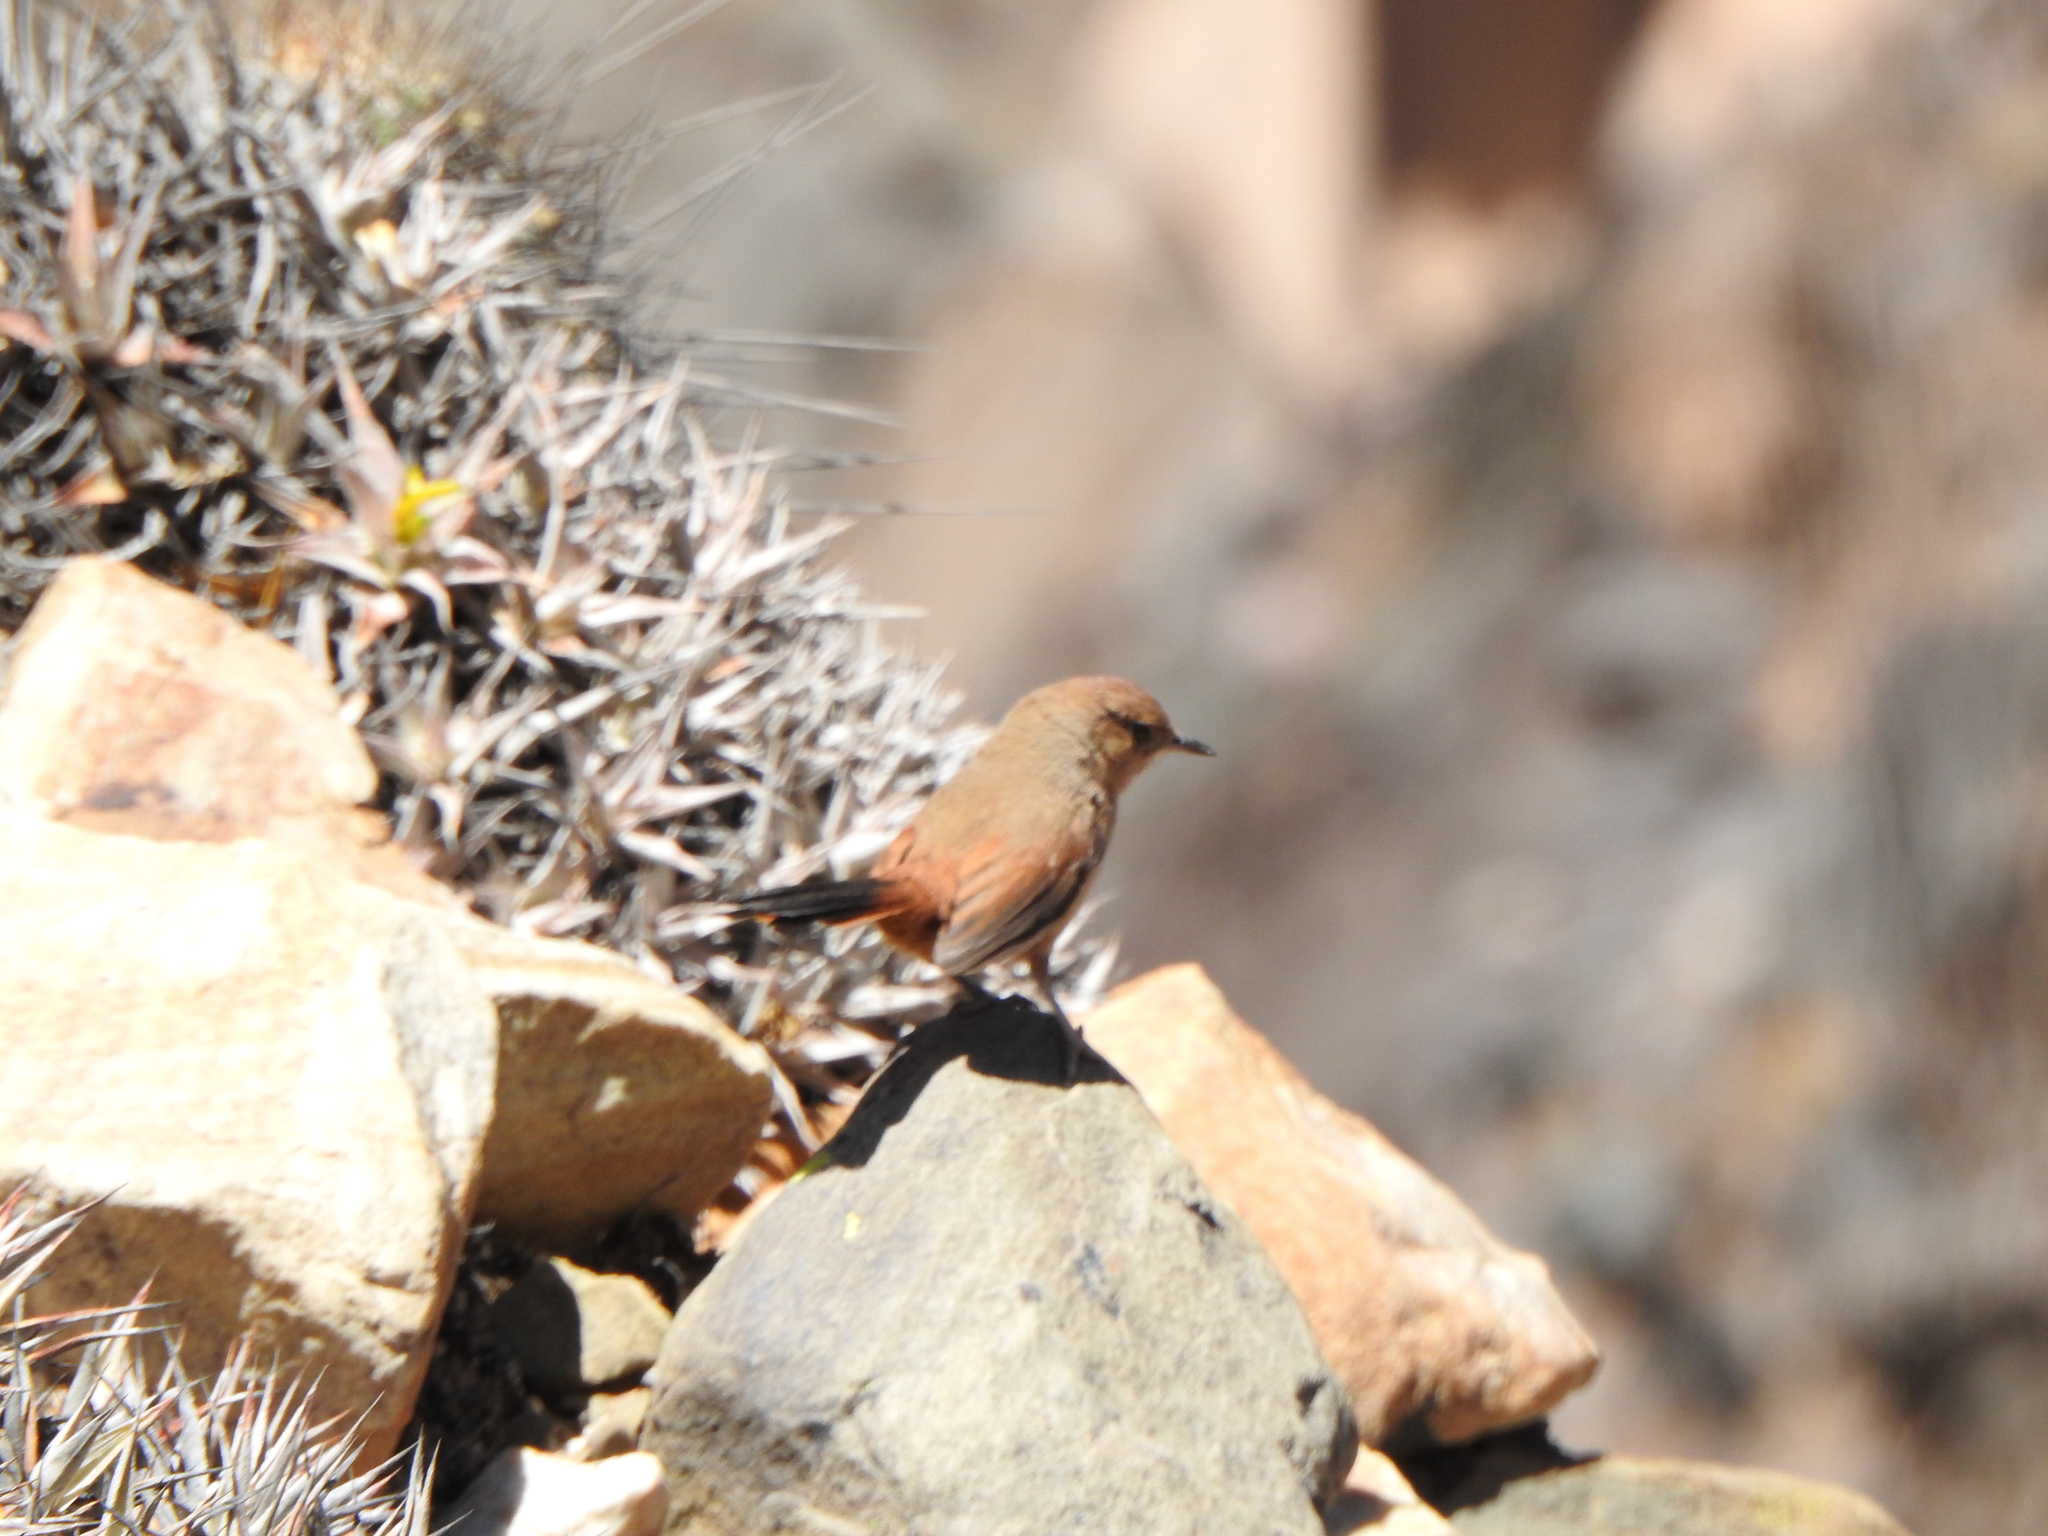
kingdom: Animalia
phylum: Chordata
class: Aves
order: Passeriformes
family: Furnariidae
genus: Asthenes
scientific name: Asthenes dorbignyi
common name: Rusty-vented canastero
